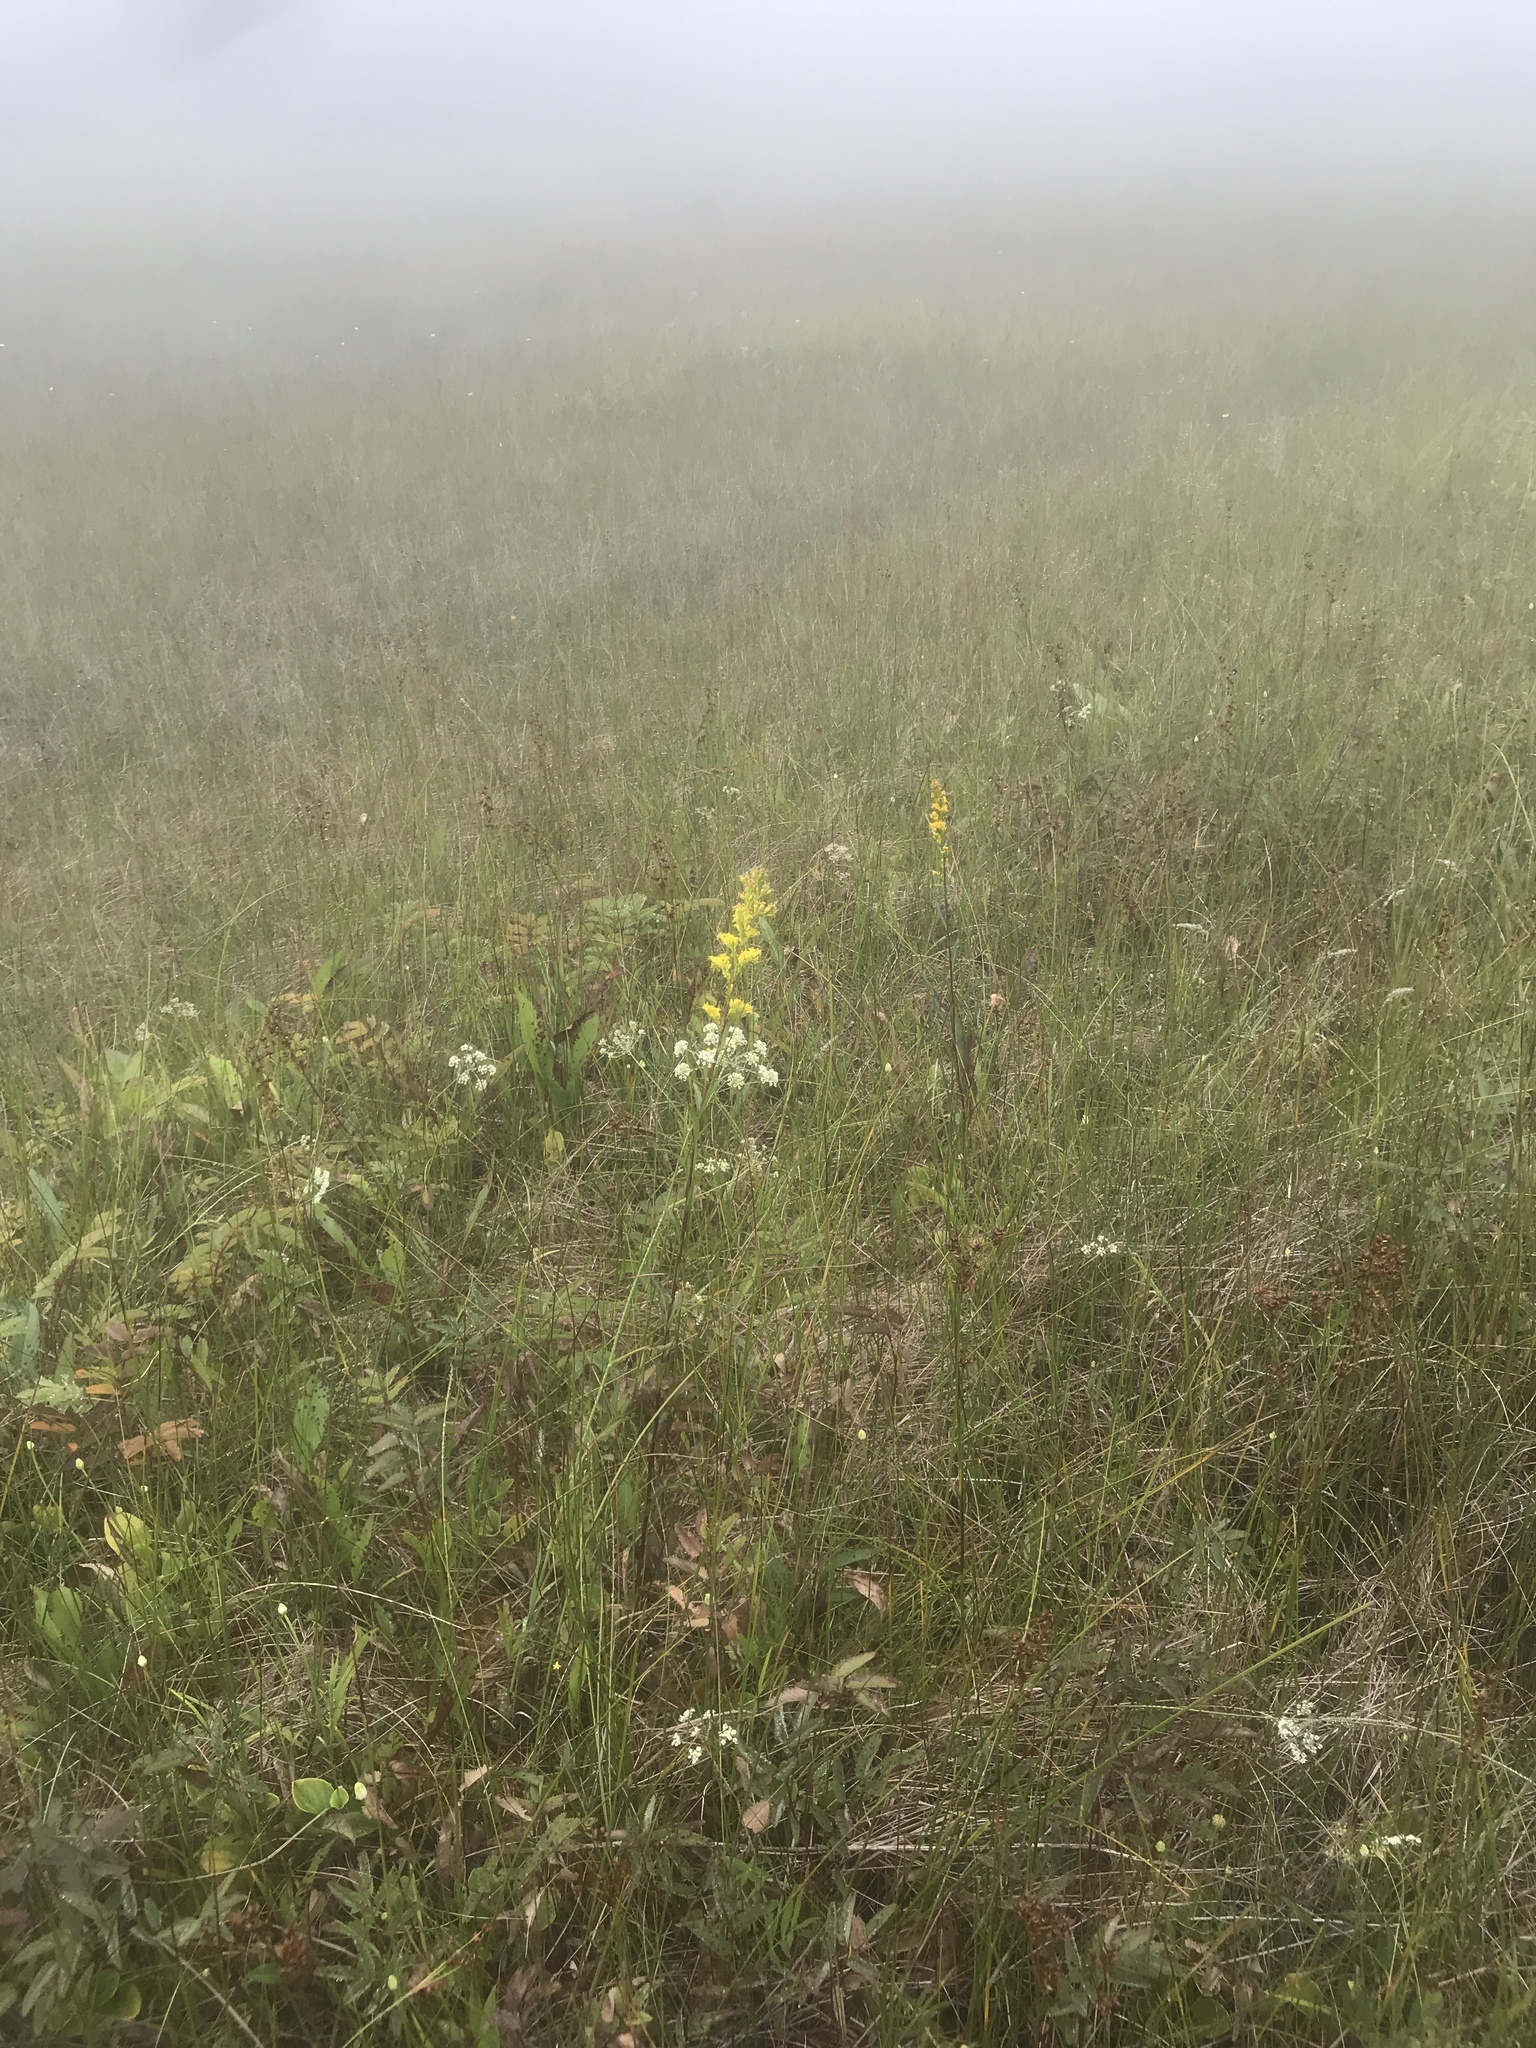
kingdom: Plantae
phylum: Tracheophyta
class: Magnoliopsida
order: Asterales
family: Asteraceae
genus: Solidago
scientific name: Solidago uliginosa
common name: Bog goldenrod
